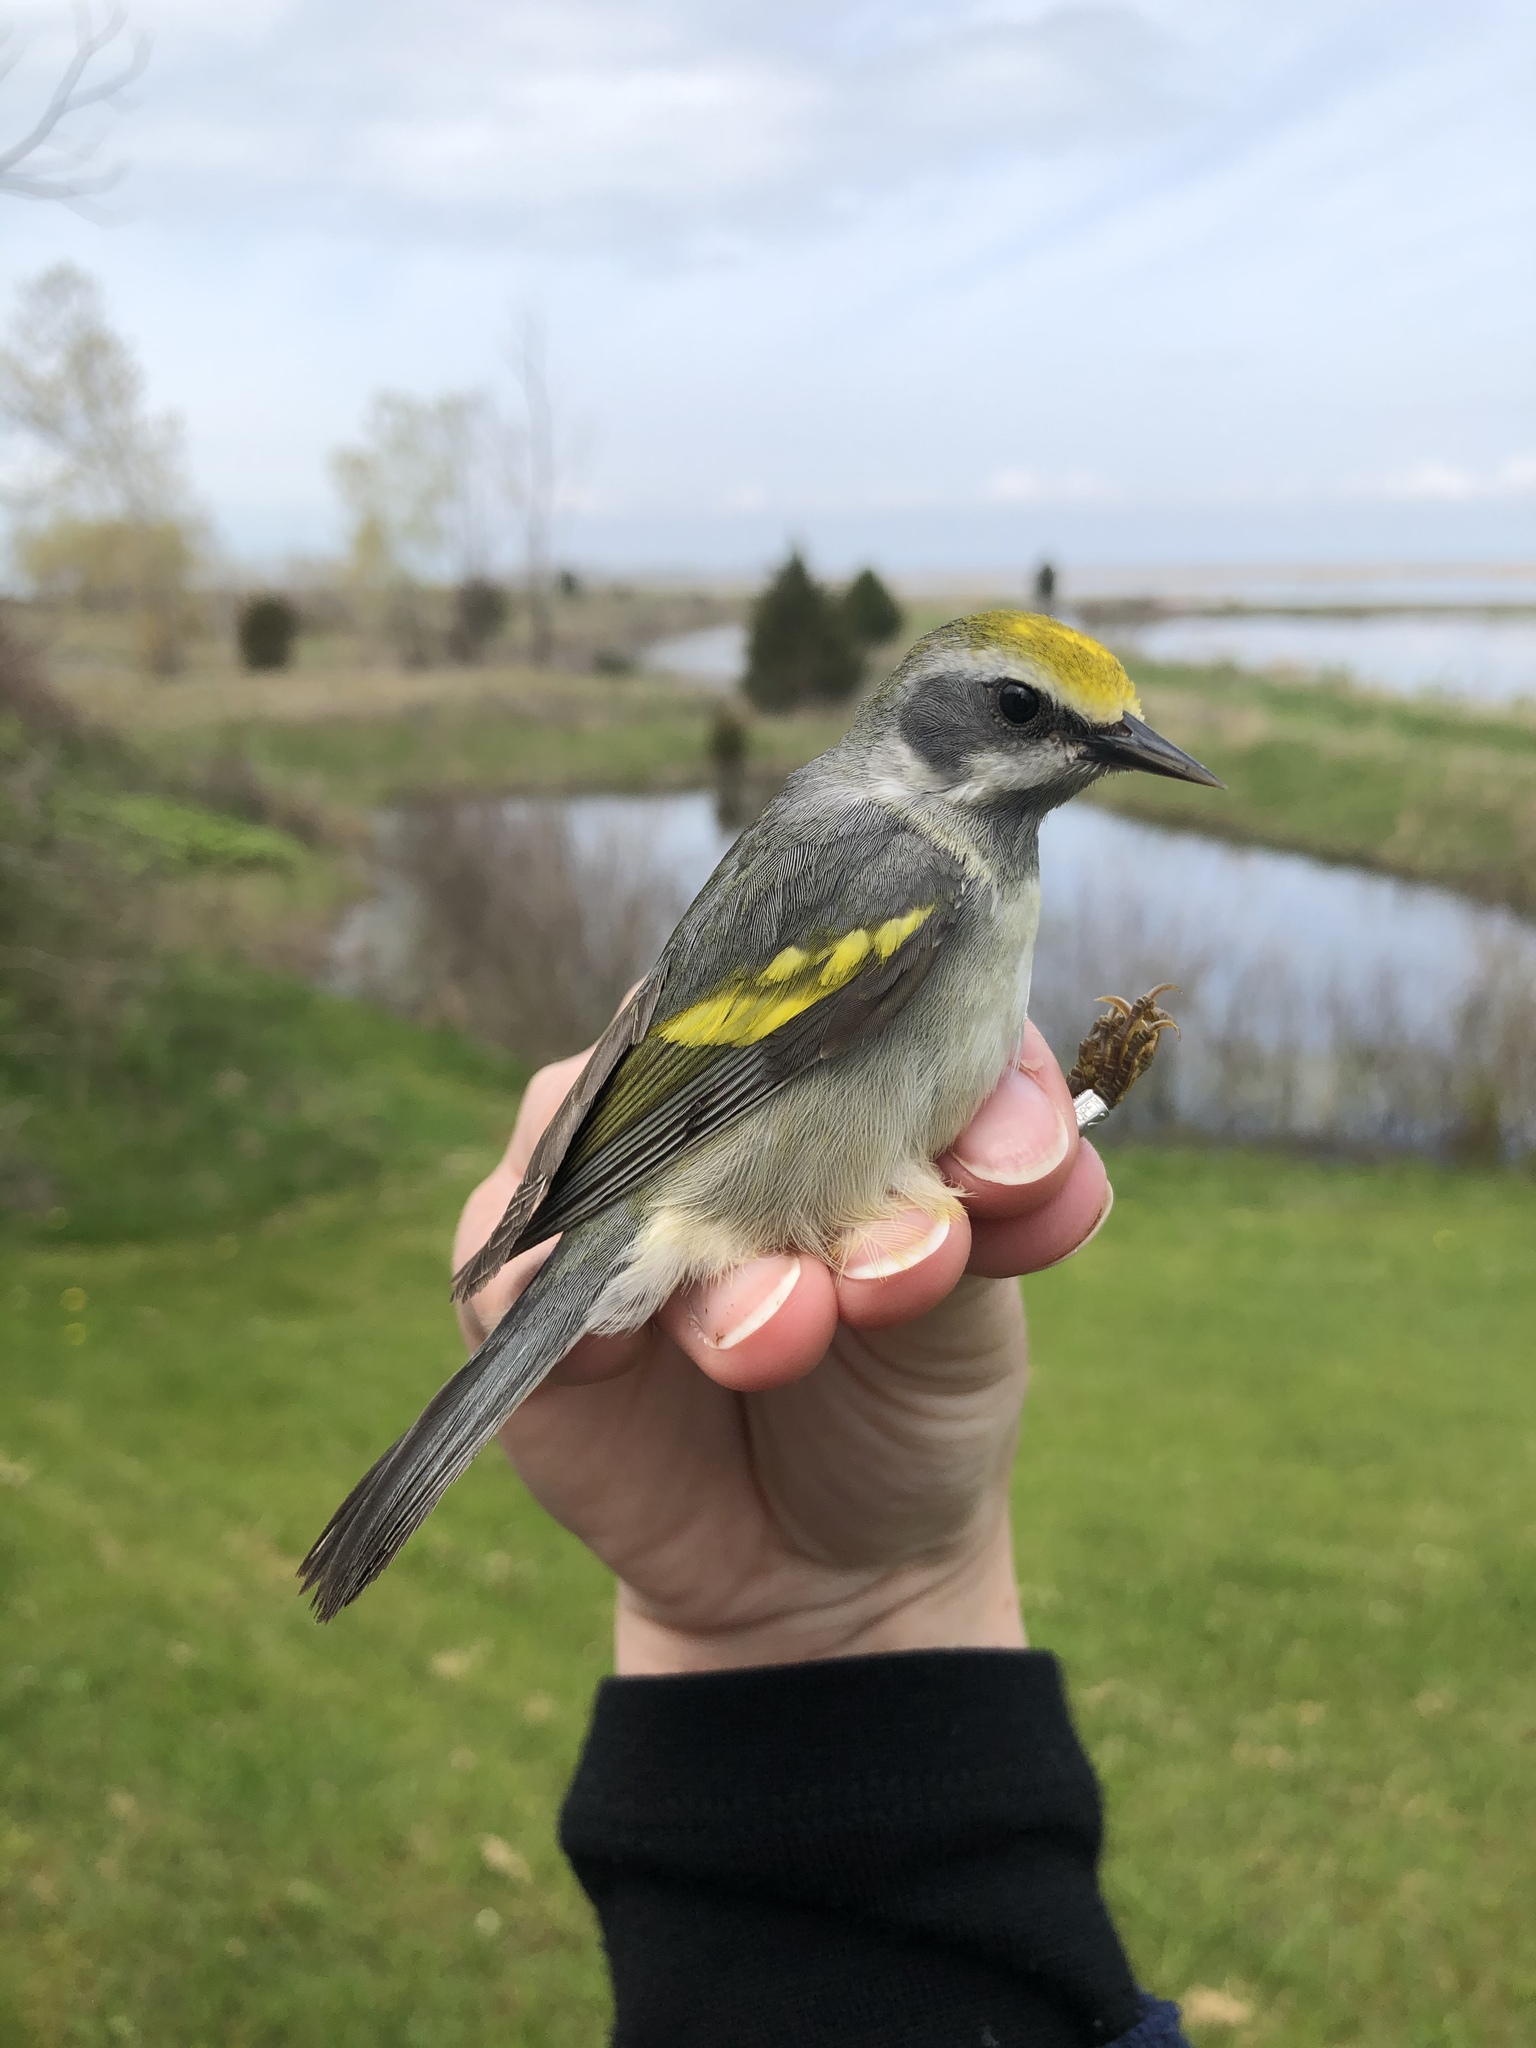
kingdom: Animalia
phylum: Chordata
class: Aves
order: Passeriformes
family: Parulidae
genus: Vermivora
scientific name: Vermivora chrysoptera
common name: Golden-winged warbler
